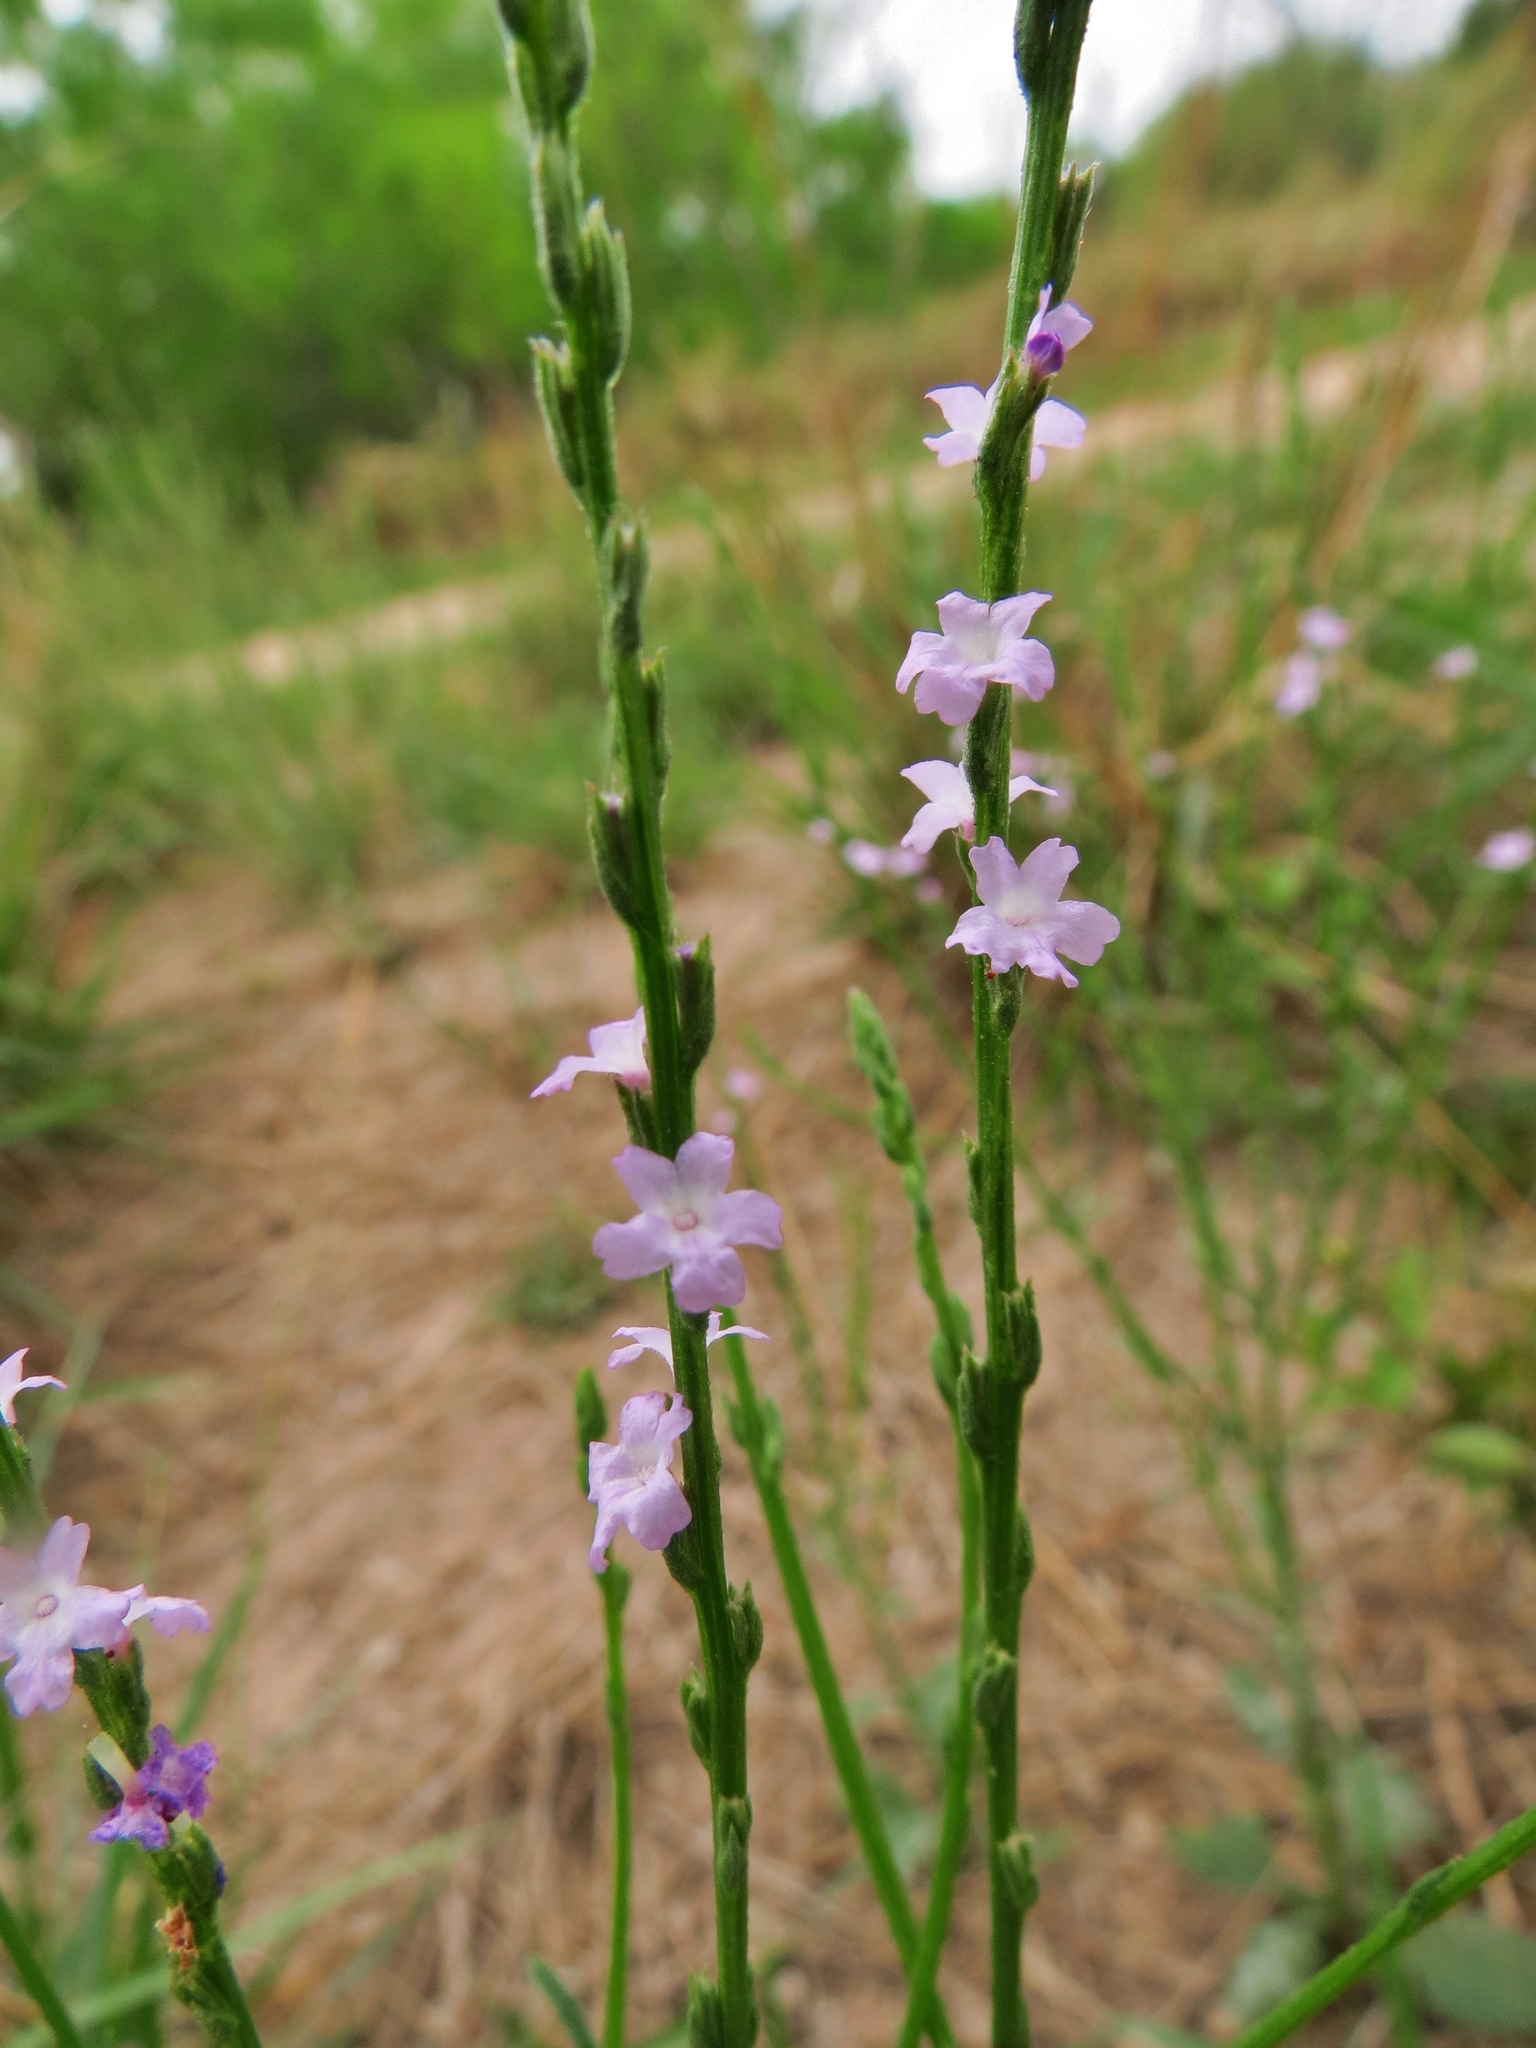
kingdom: Plantae
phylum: Tracheophyta
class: Magnoliopsida
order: Lamiales
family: Verbenaceae
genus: Verbena
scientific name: Verbena halei
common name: Texas vervain
